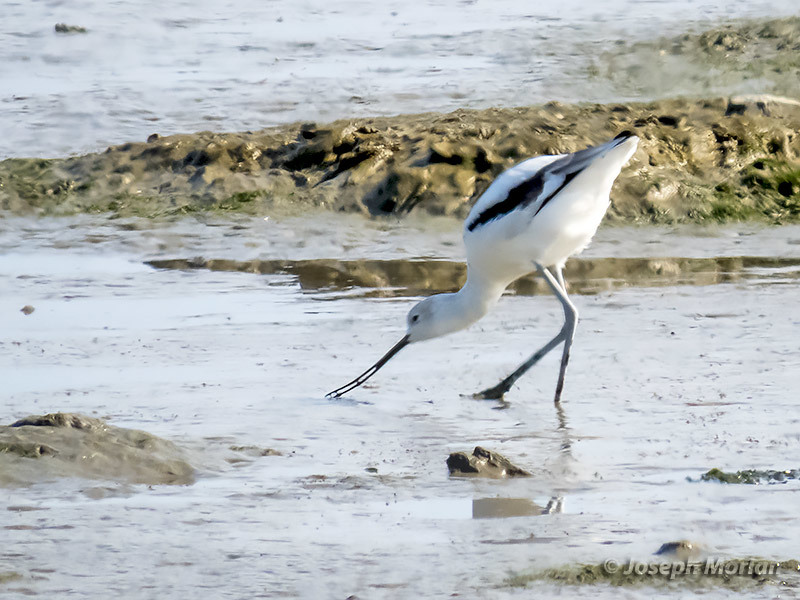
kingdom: Animalia
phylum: Chordata
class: Aves
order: Charadriiformes
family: Recurvirostridae
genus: Recurvirostra
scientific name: Recurvirostra americana
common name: American avocet
